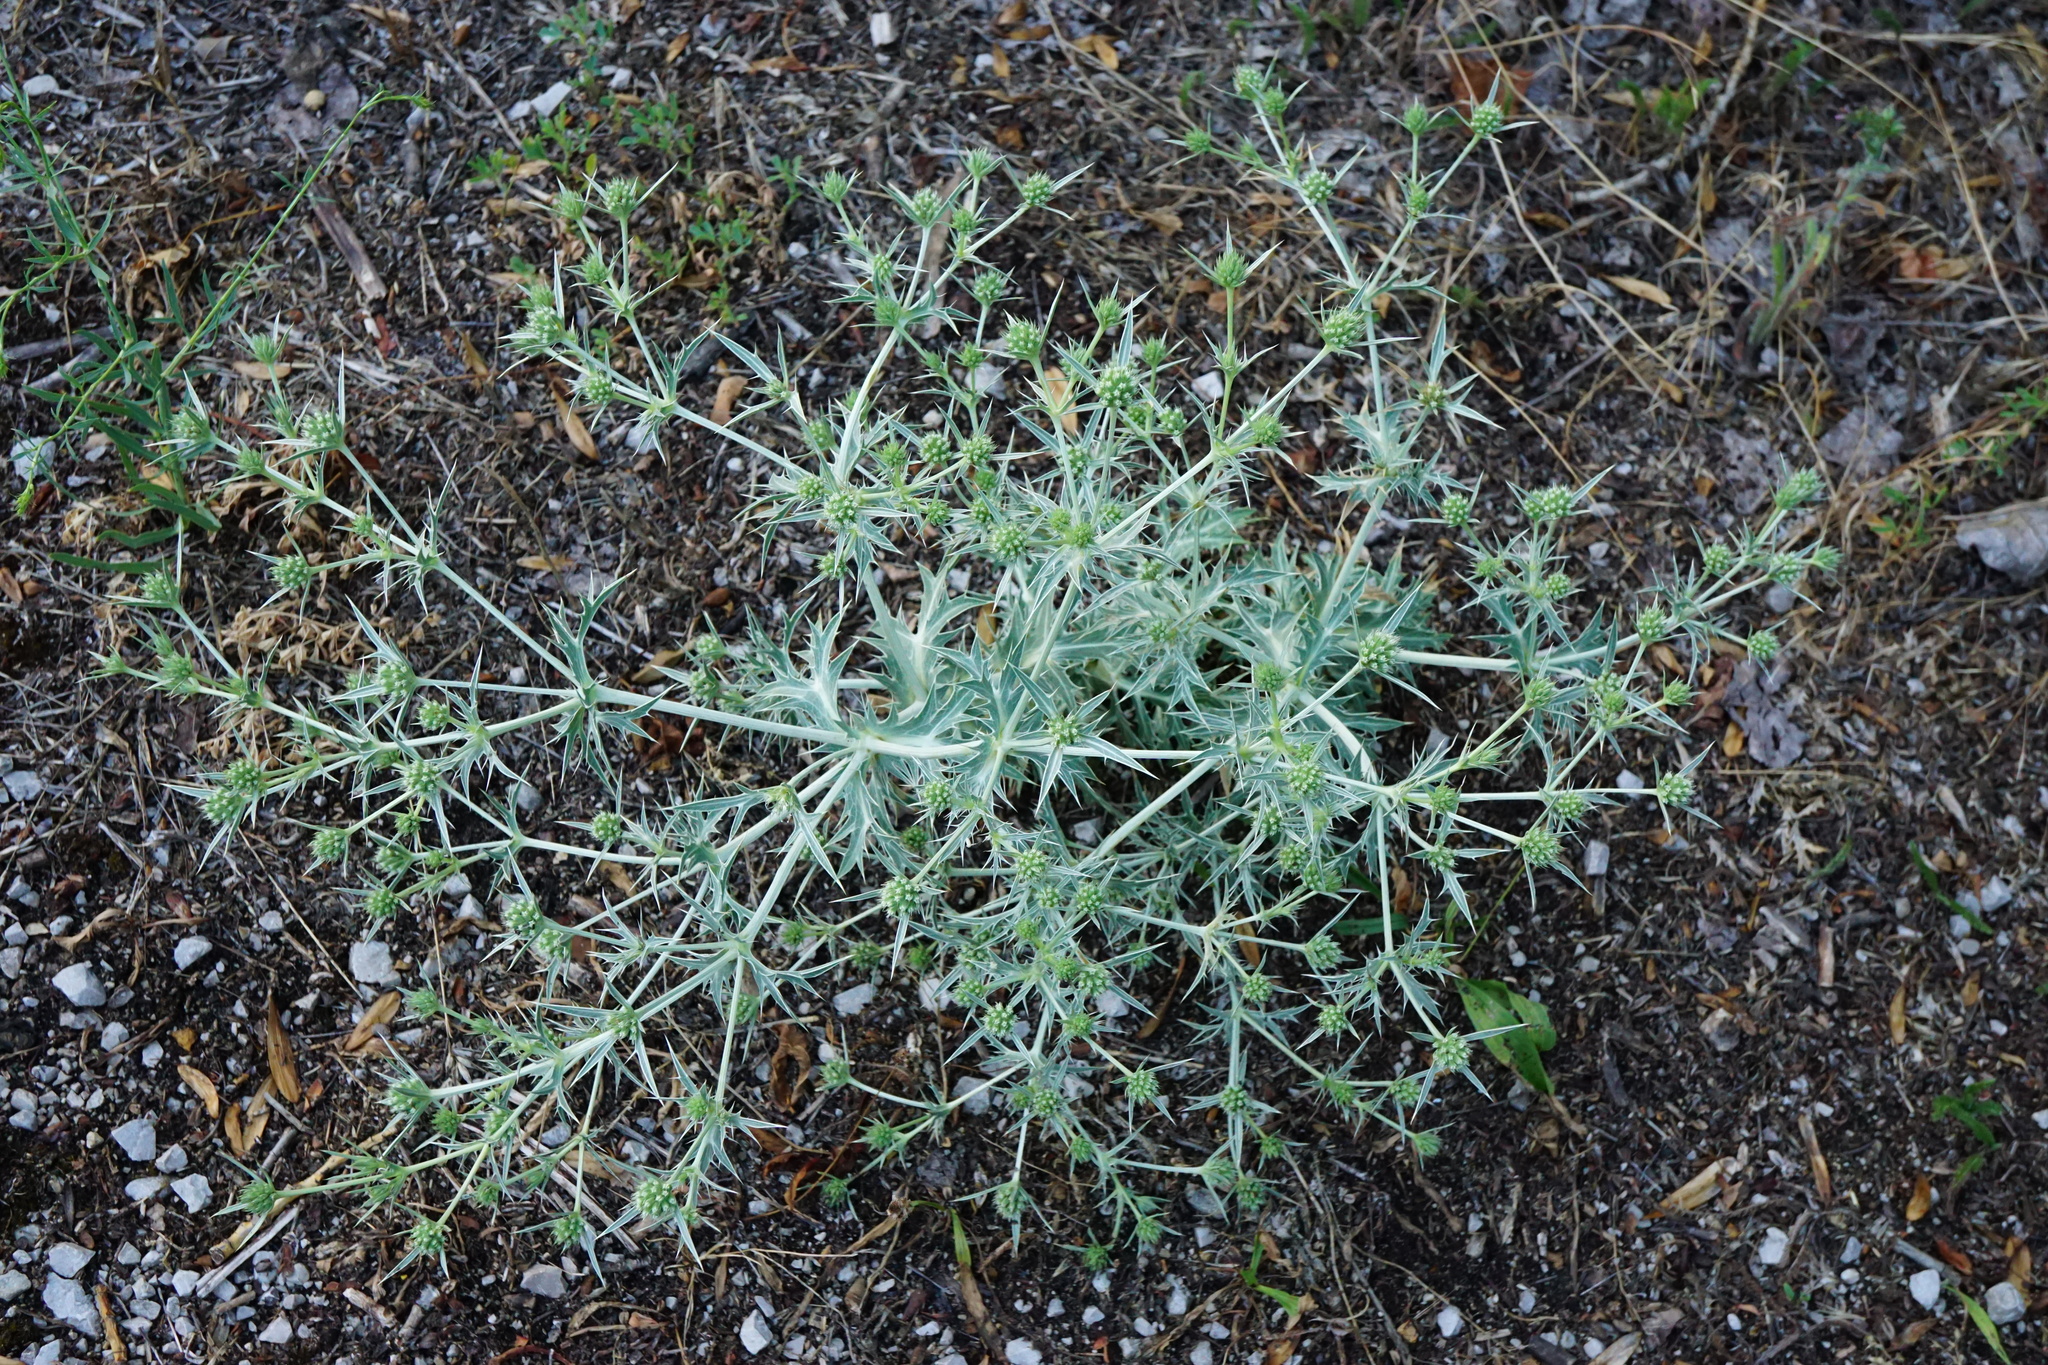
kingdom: Plantae
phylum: Tracheophyta
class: Magnoliopsida
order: Apiales
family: Apiaceae
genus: Eryngium
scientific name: Eryngium campestre
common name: Field eryngo
